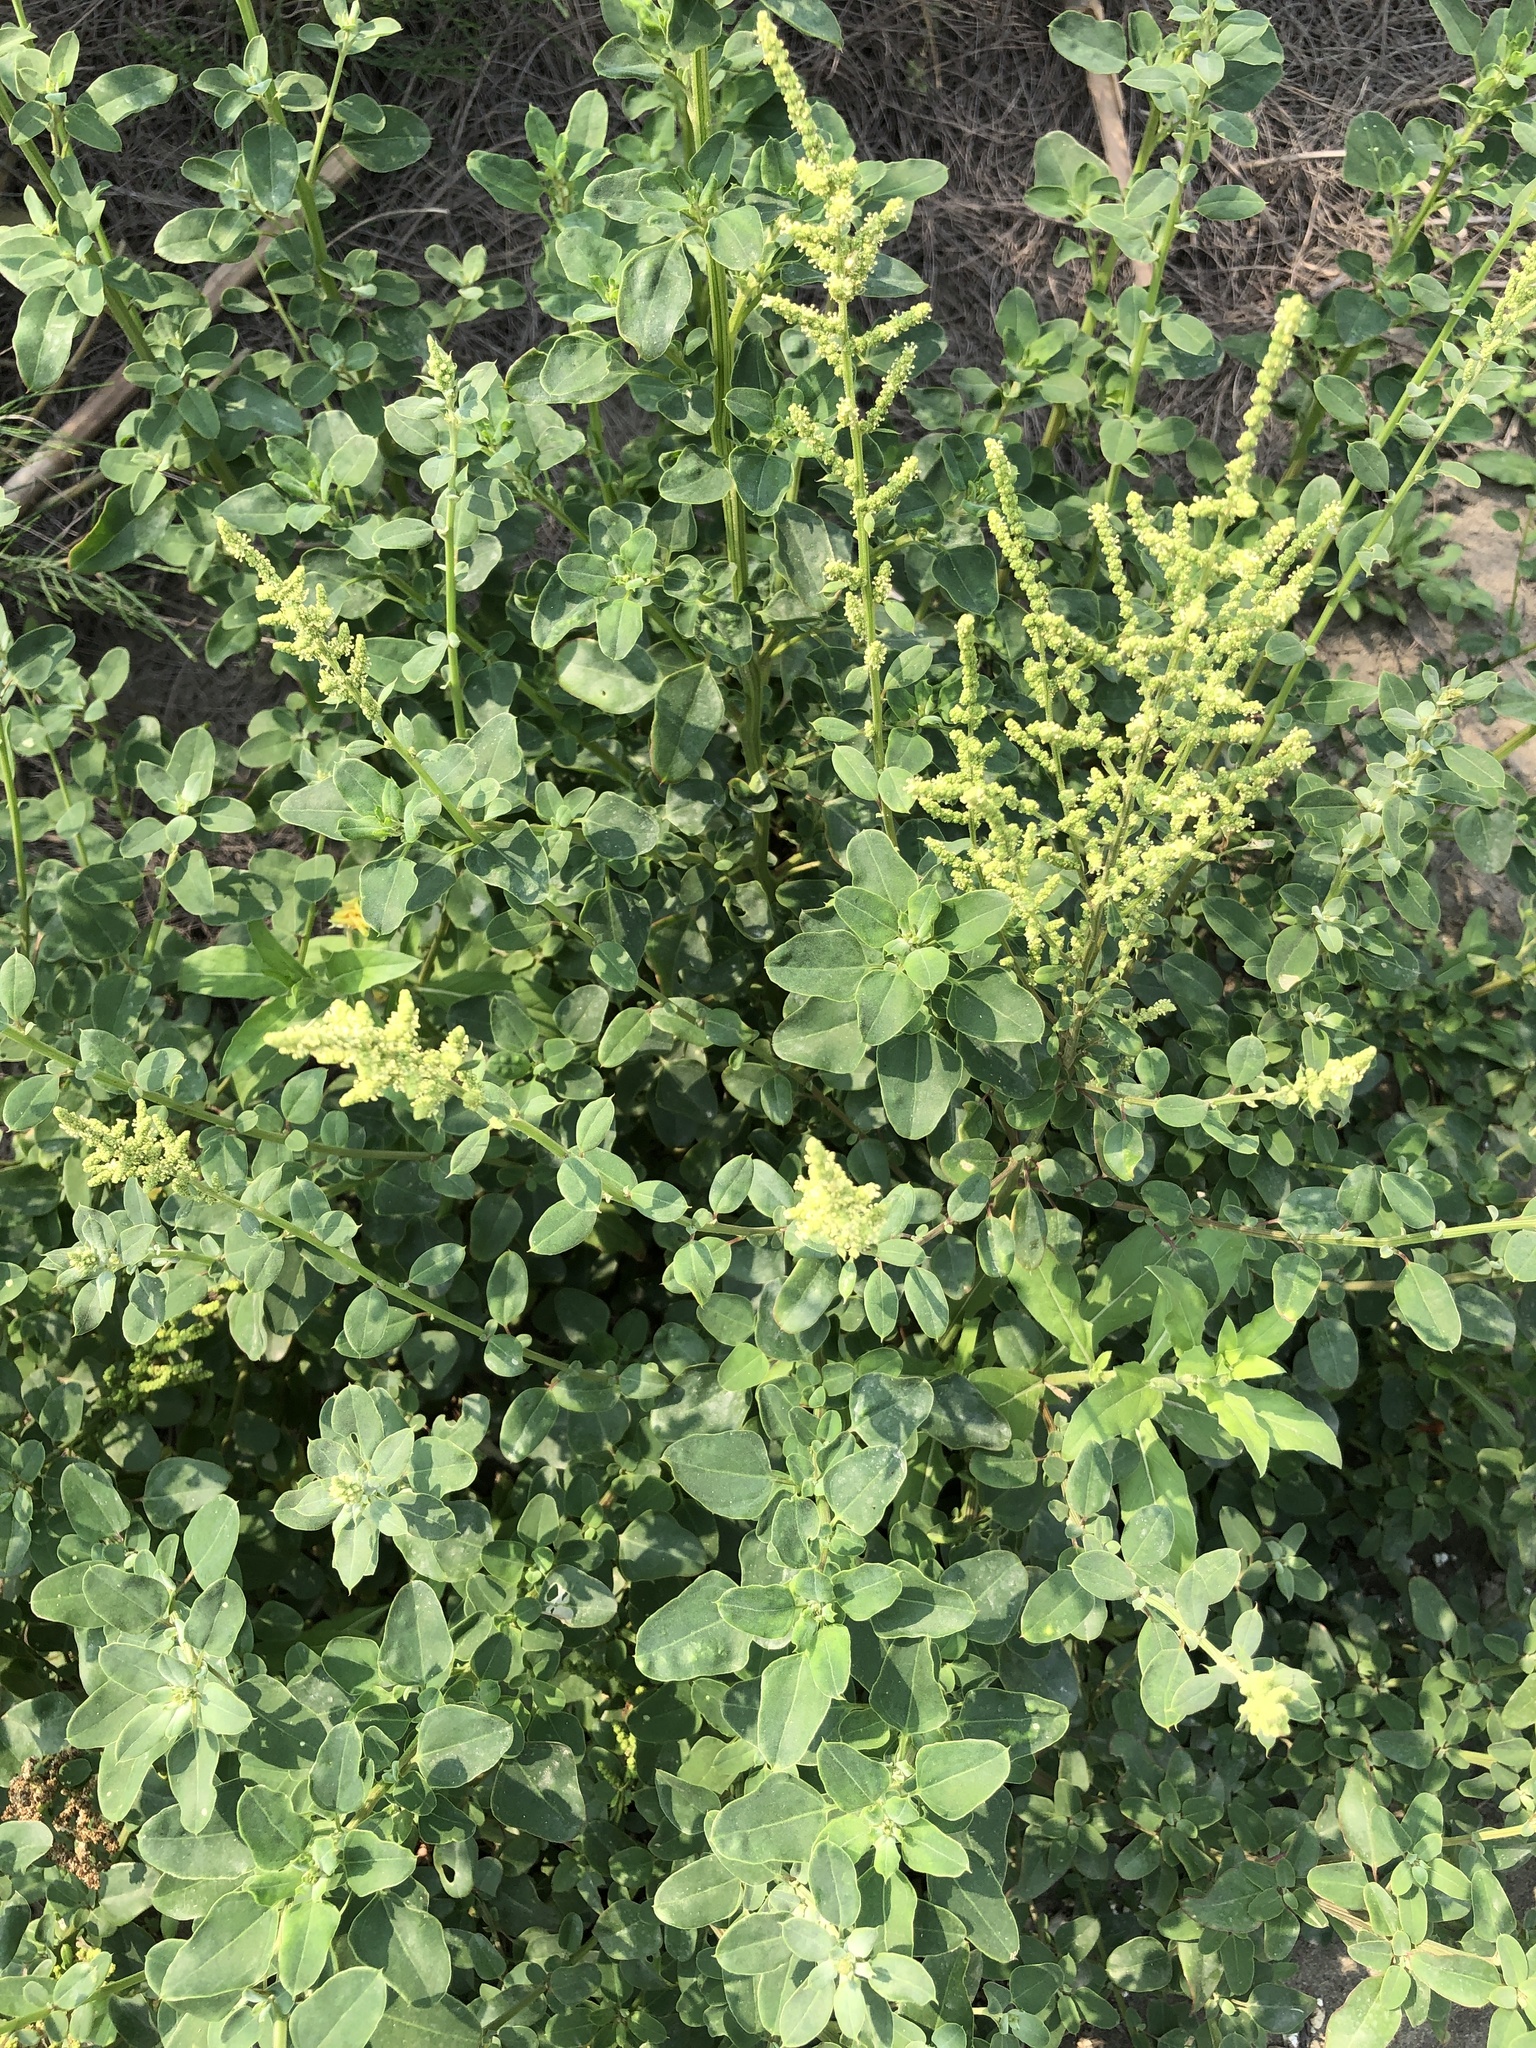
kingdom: Plantae
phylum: Tracheophyta
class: Magnoliopsida
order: Caryophyllales
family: Amaranthaceae
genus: Chenopodium
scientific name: Chenopodium acuminatum
